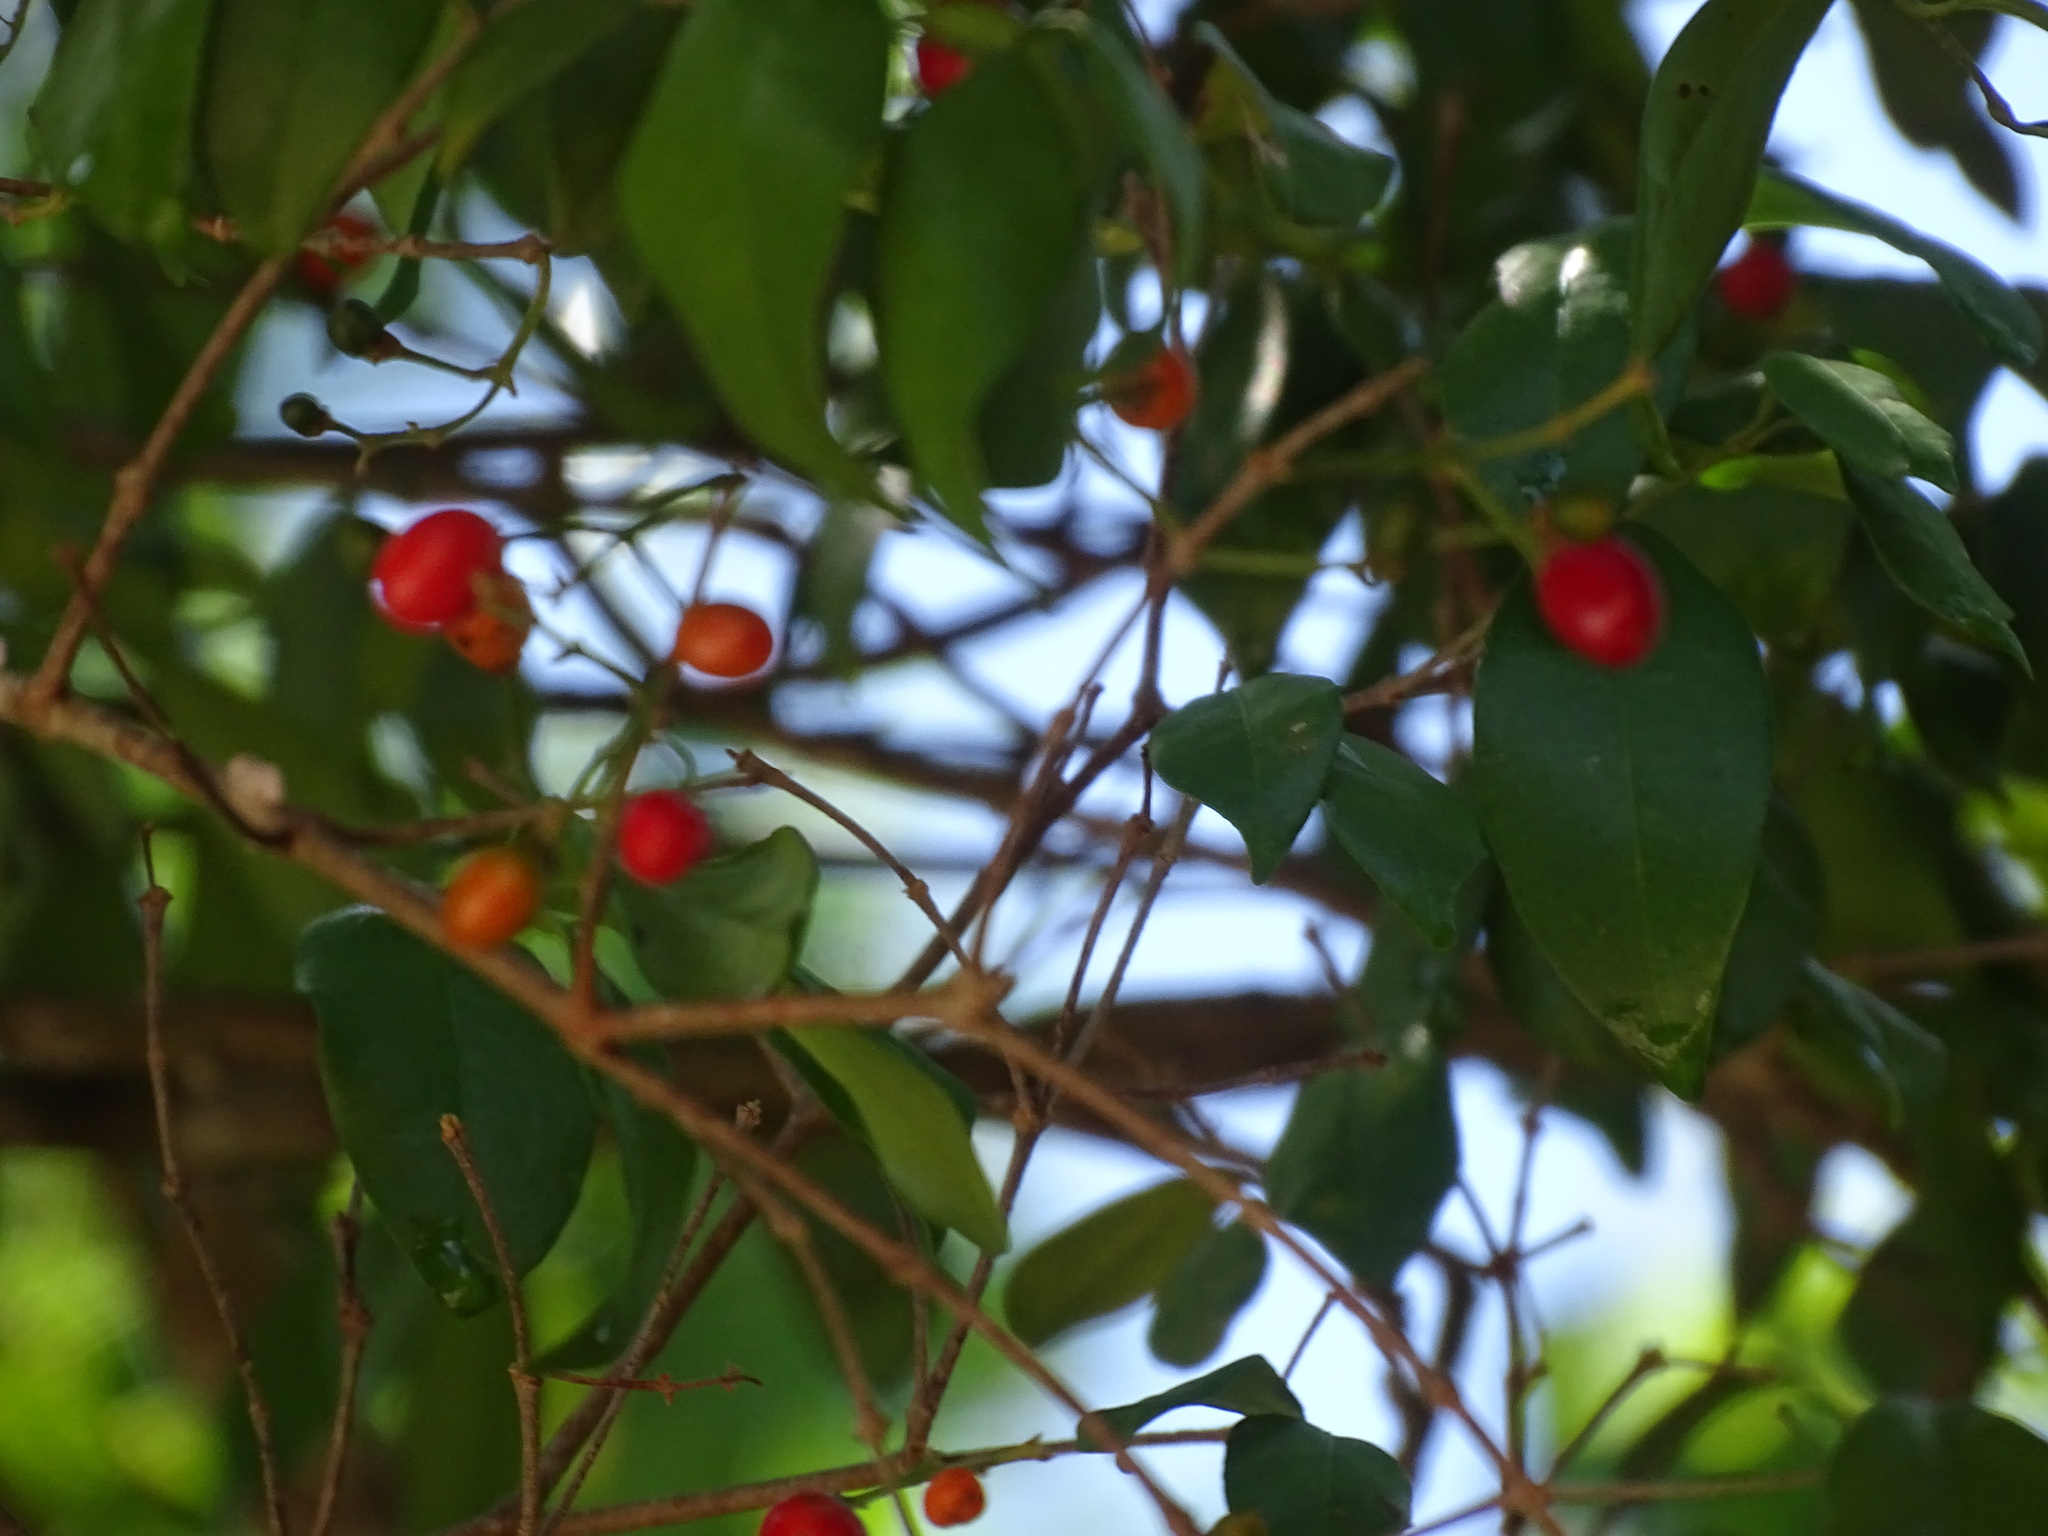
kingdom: Plantae
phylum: Tracheophyta
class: Magnoliopsida
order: Malpighiales
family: Malpighiaceae
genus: Bunchosia
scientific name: Bunchosia lindeniana
